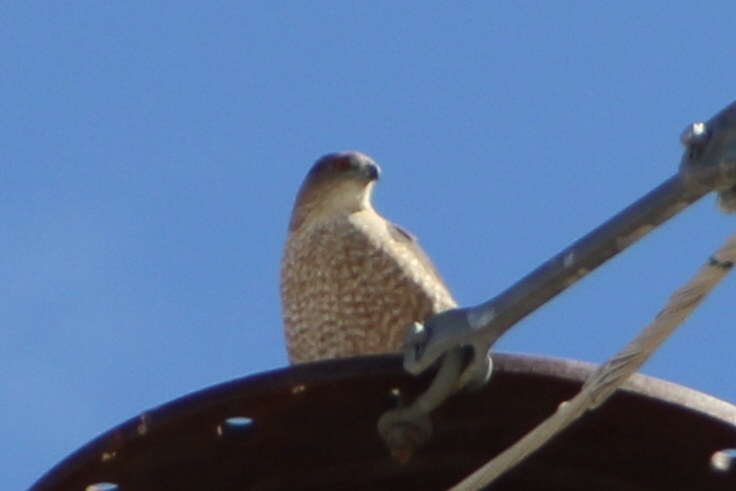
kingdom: Animalia
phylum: Chordata
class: Aves
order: Accipitriformes
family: Accipitridae
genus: Accipiter
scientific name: Accipiter cooperii
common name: Cooper's hawk
